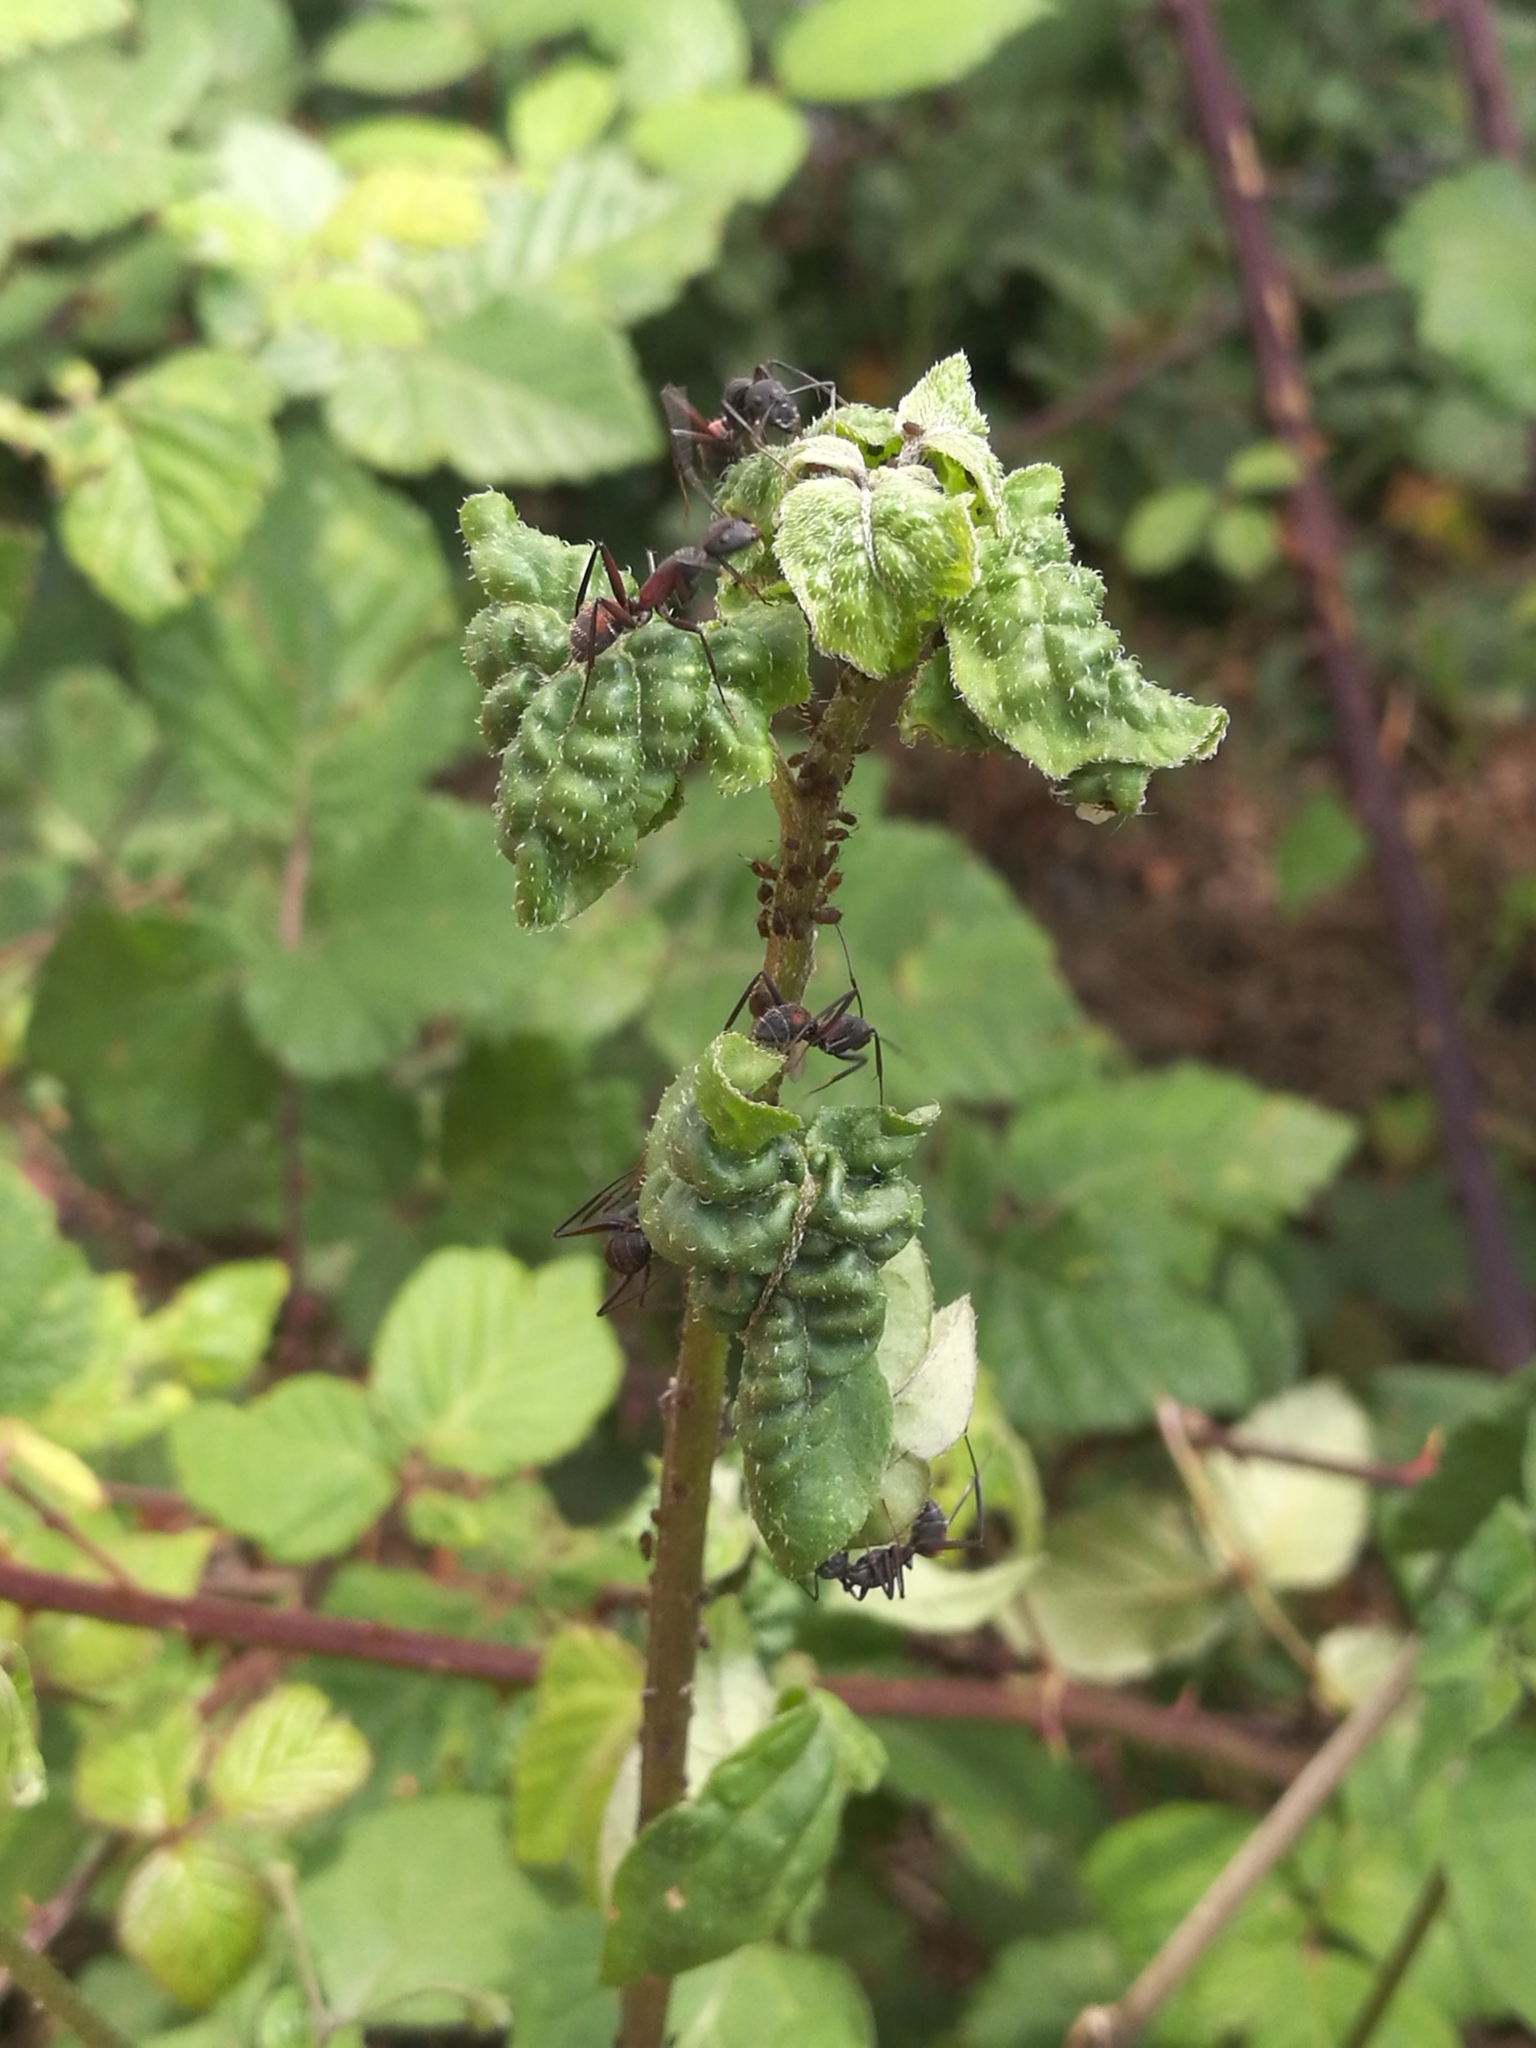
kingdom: Animalia
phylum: Arthropoda
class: Insecta
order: Hymenoptera
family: Formicidae
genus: Camponotus
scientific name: Camponotus cruentatus
